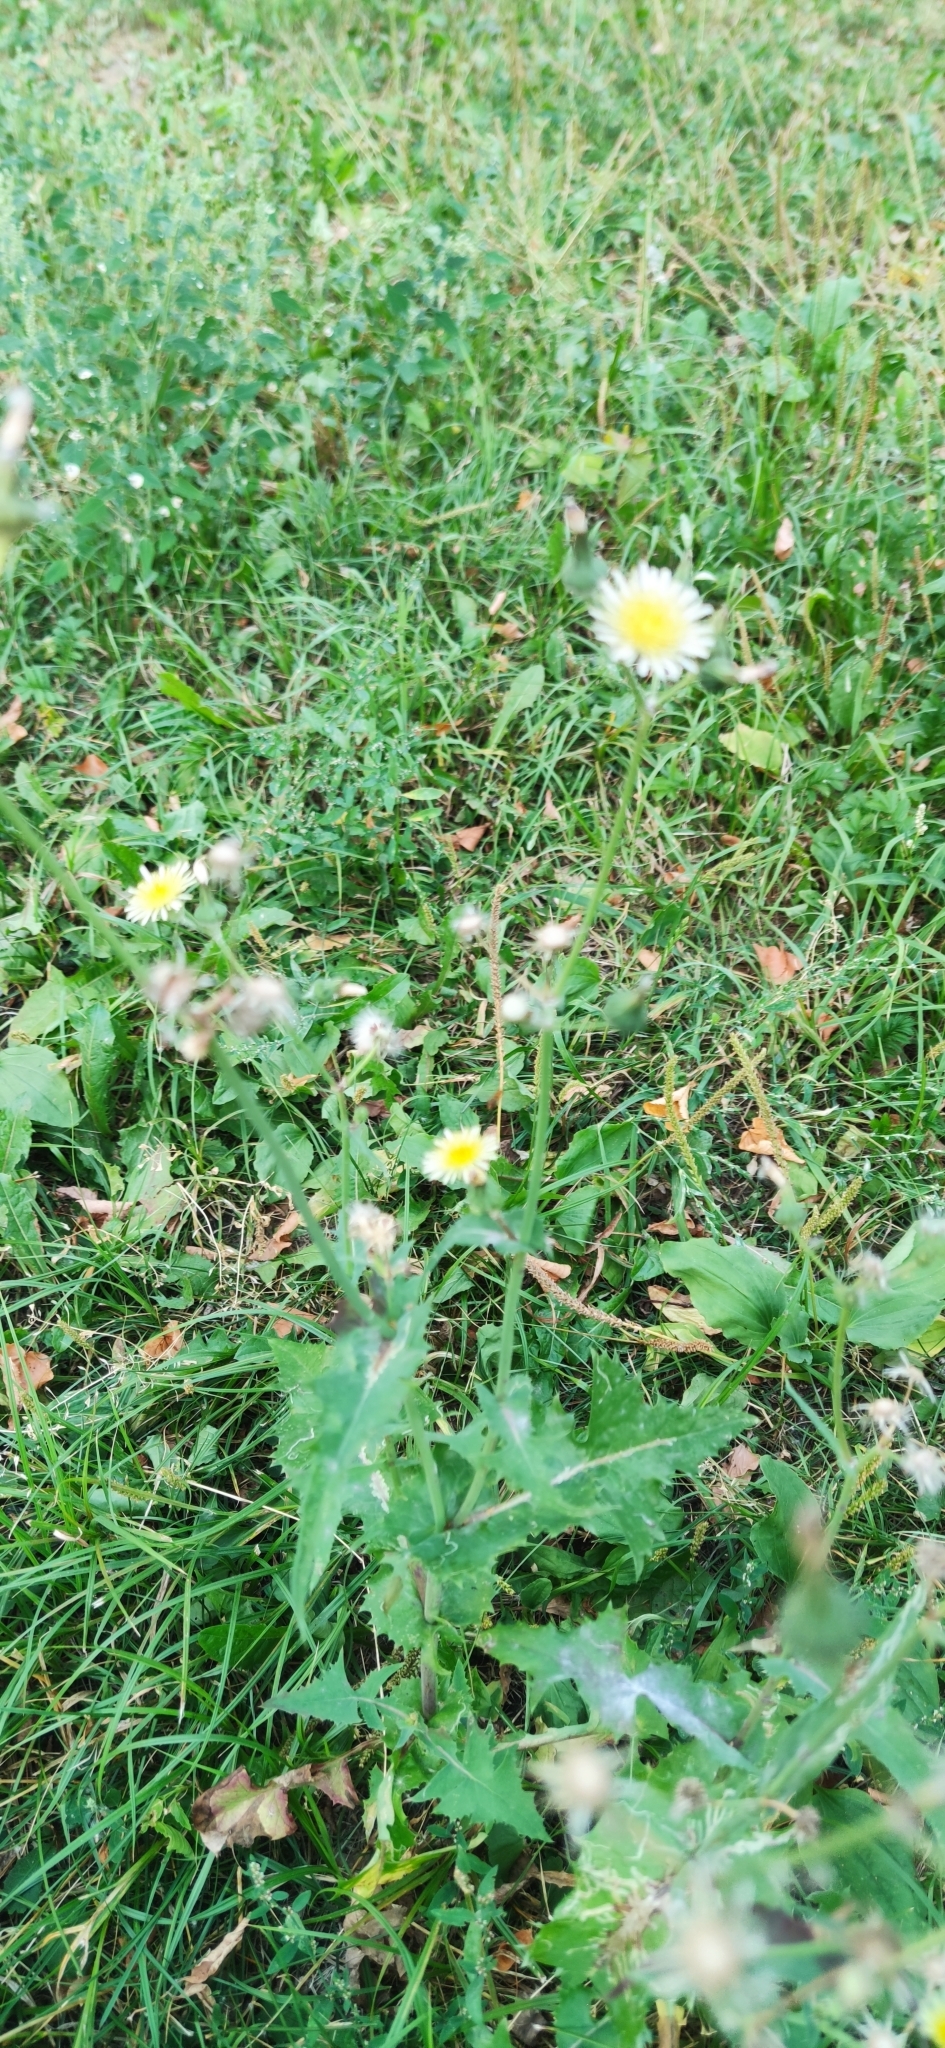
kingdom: Plantae
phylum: Tracheophyta
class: Magnoliopsida
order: Asterales
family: Asteraceae
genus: Sonchus
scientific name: Sonchus oleraceus
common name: Common sowthistle
